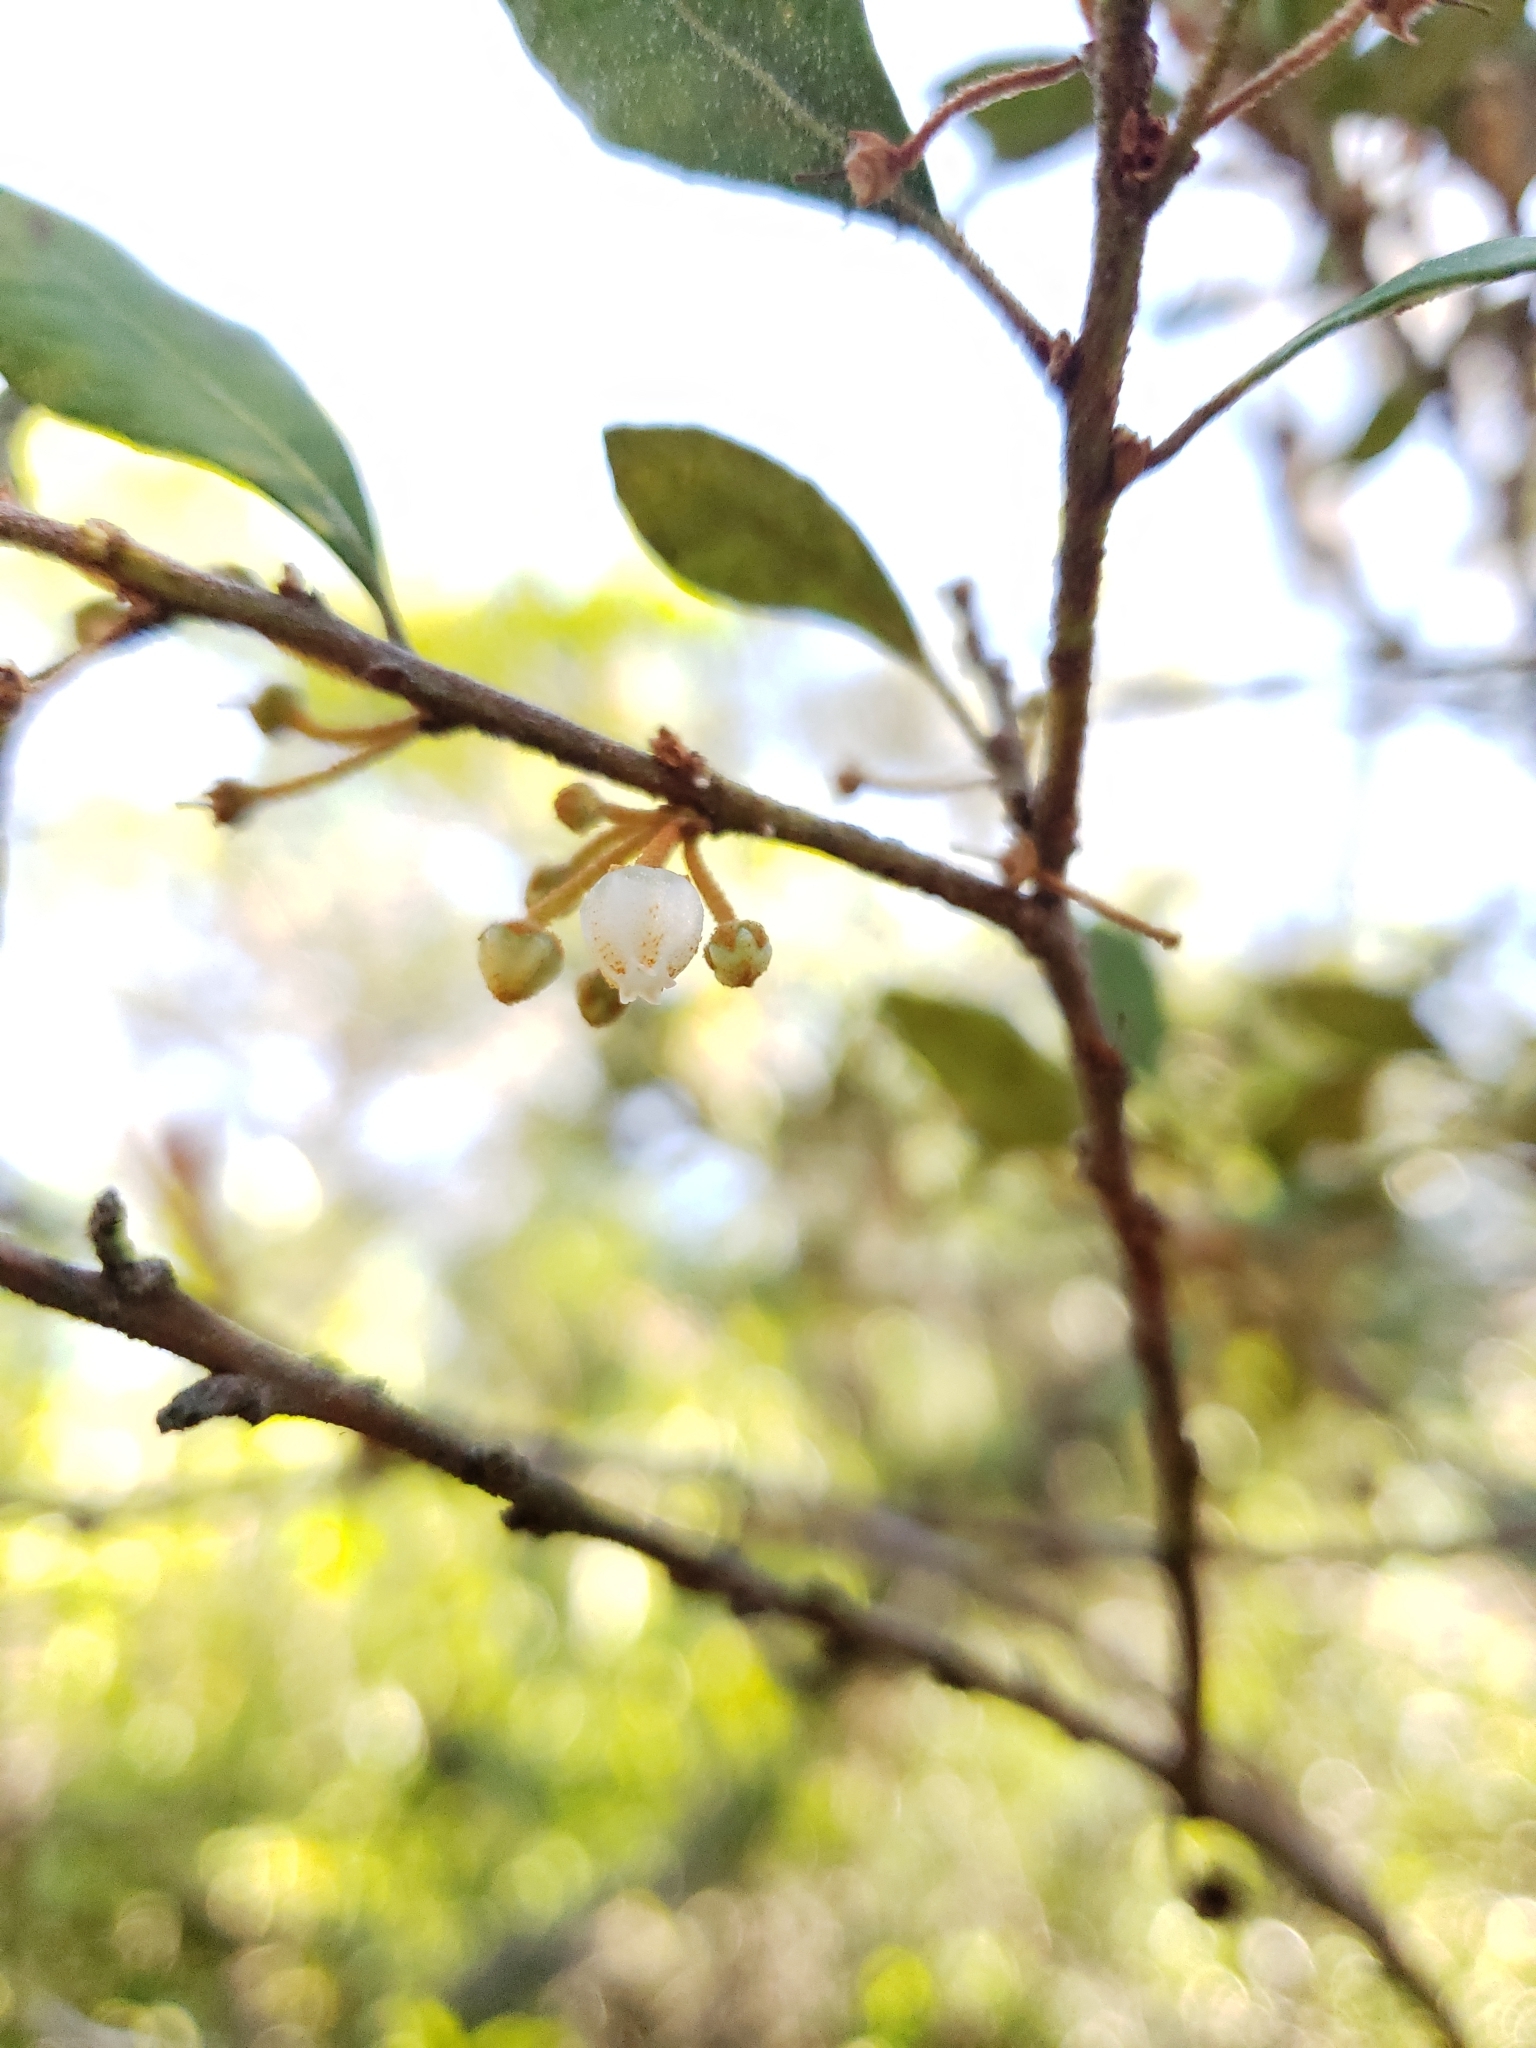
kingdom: Plantae
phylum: Tracheophyta
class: Magnoliopsida
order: Ericales
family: Ericaceae
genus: Lyonia
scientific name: Lyonia ferruginea
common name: Rusty lyonia
